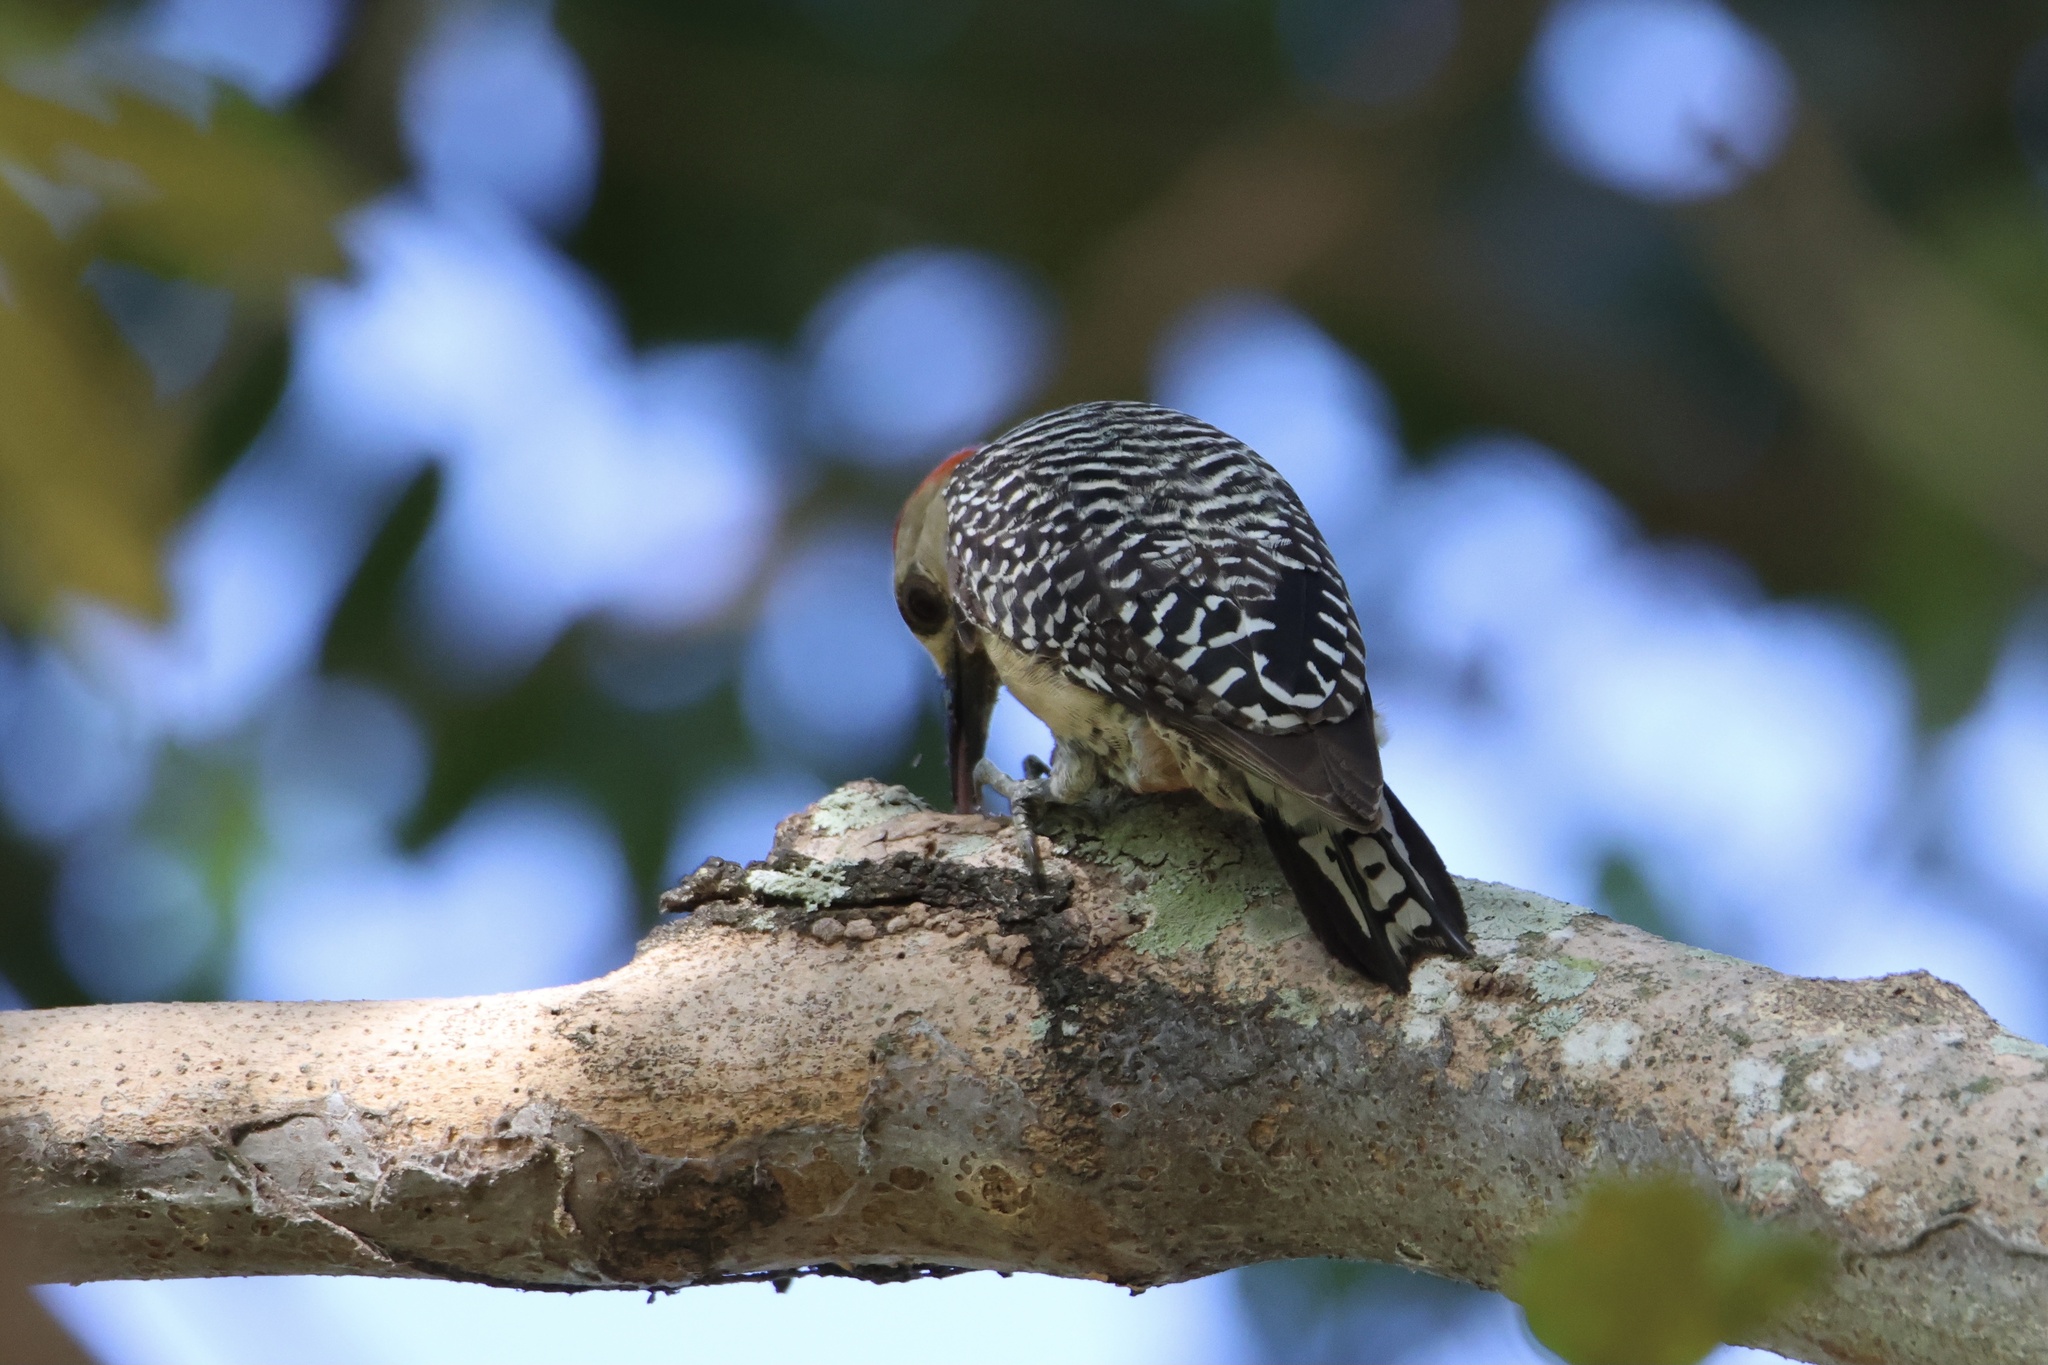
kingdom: Animalia
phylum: Chordata
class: Aves
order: Piciformes
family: Picidae
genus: Melanerpes
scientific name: Melanerpes rubricapillus
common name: Red-crowned woodpecker
